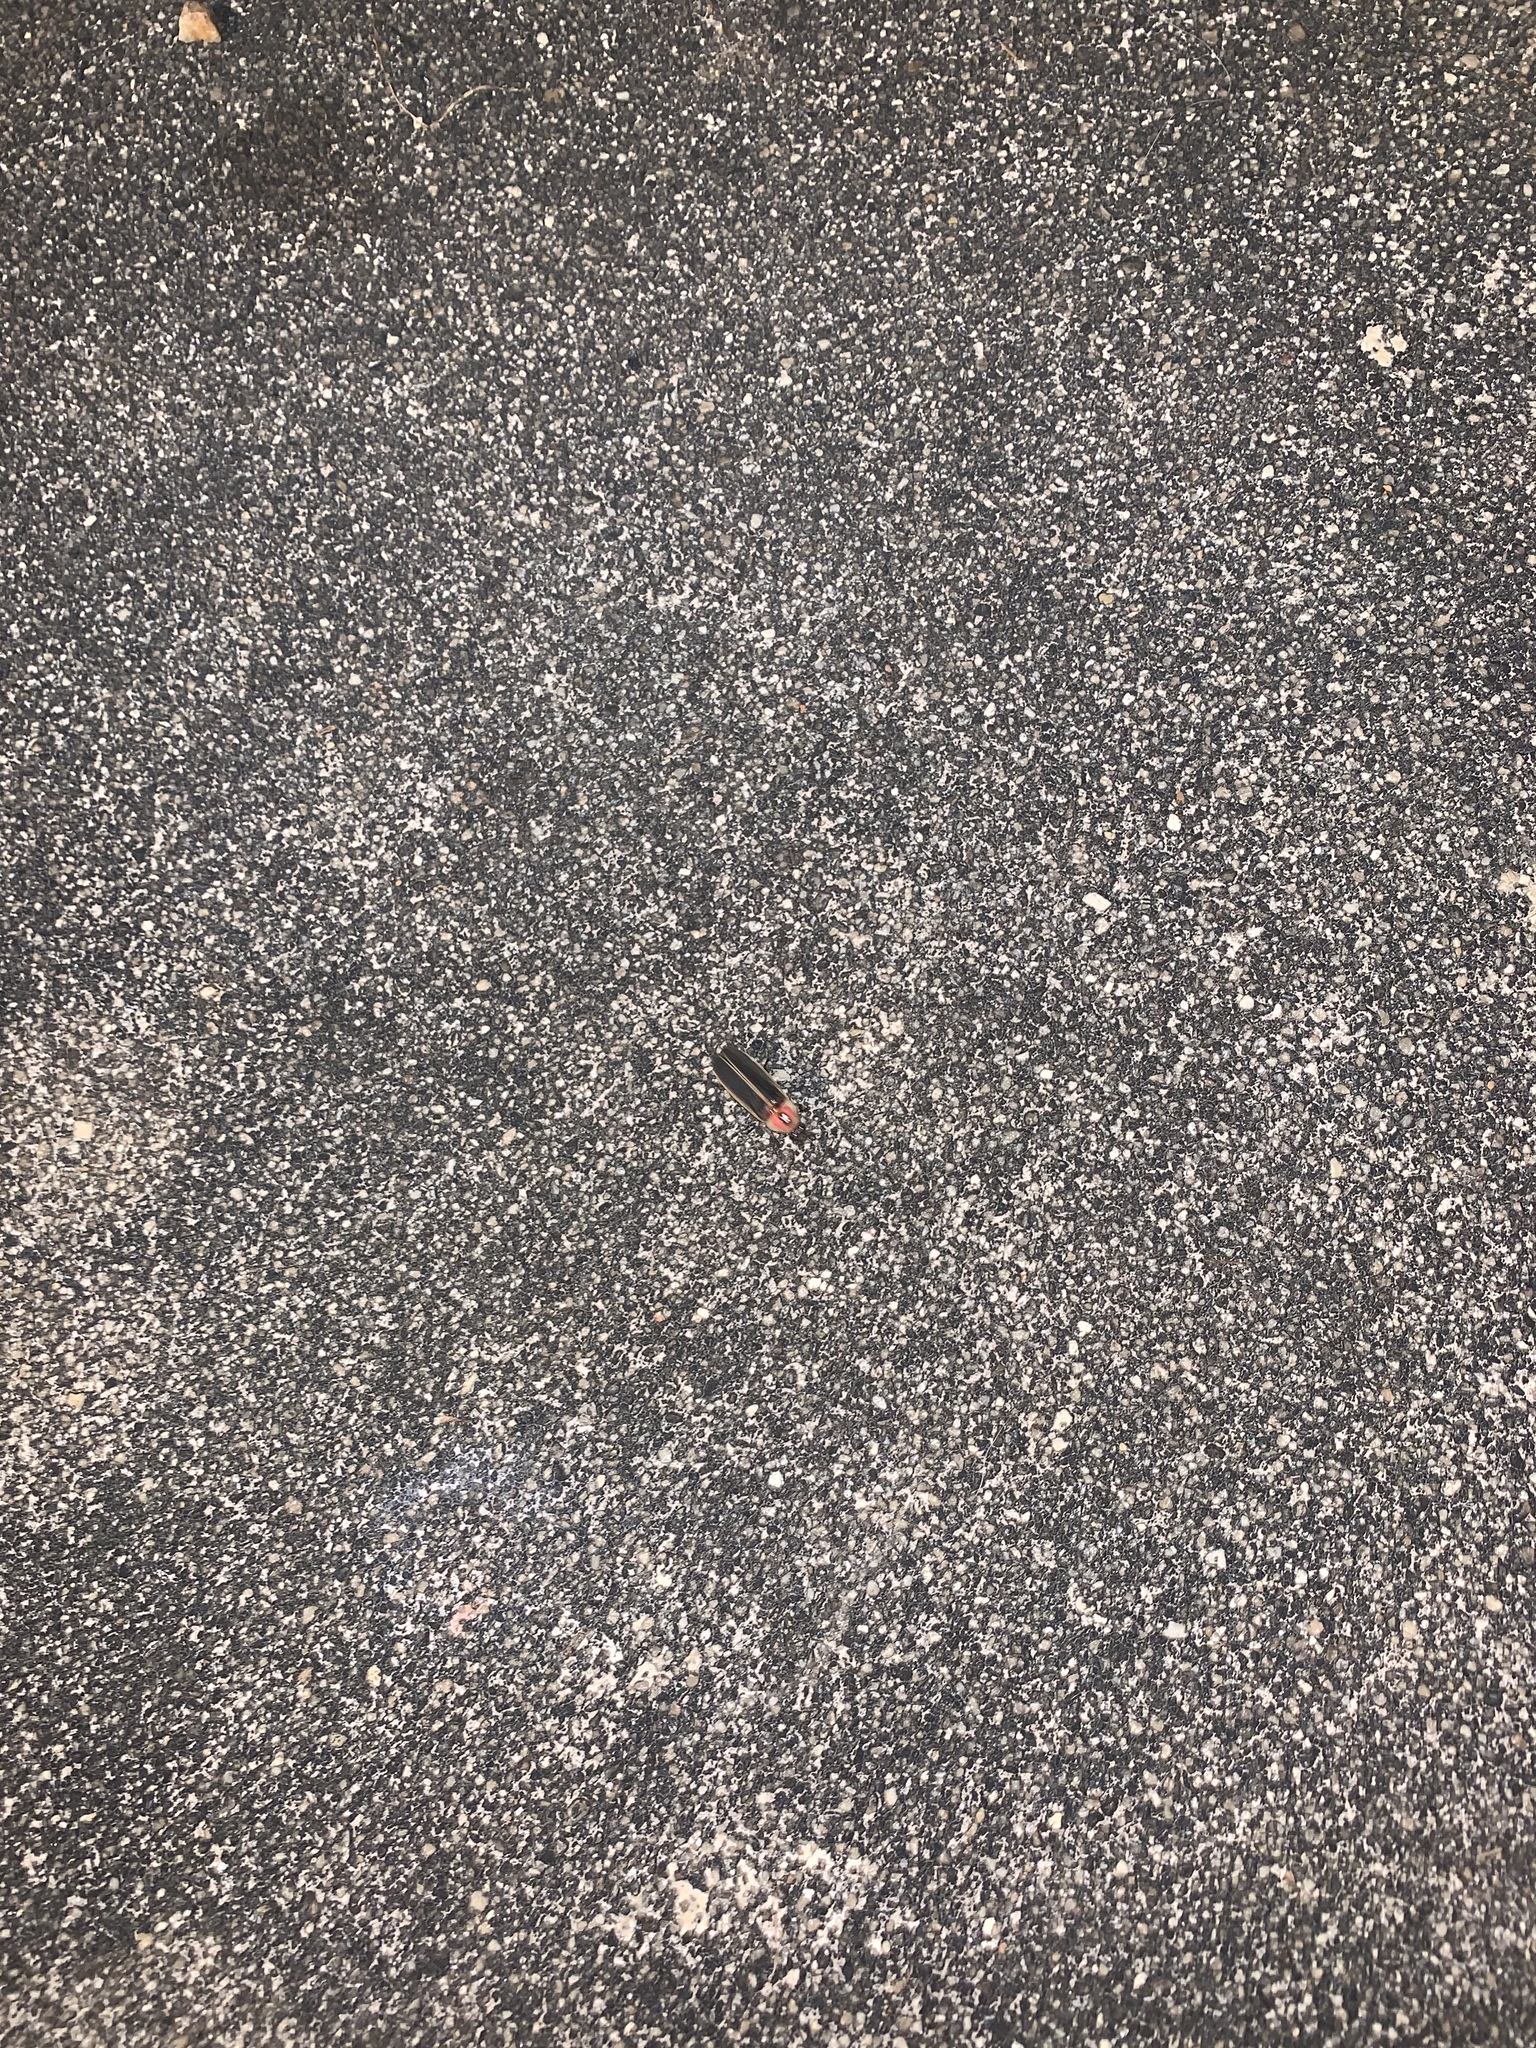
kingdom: Animalia
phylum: Arthropoda
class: Insecta
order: Coleoptera
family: Lampyridae
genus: Photinus
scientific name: Photinus pyralis
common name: Big dipper firefly
